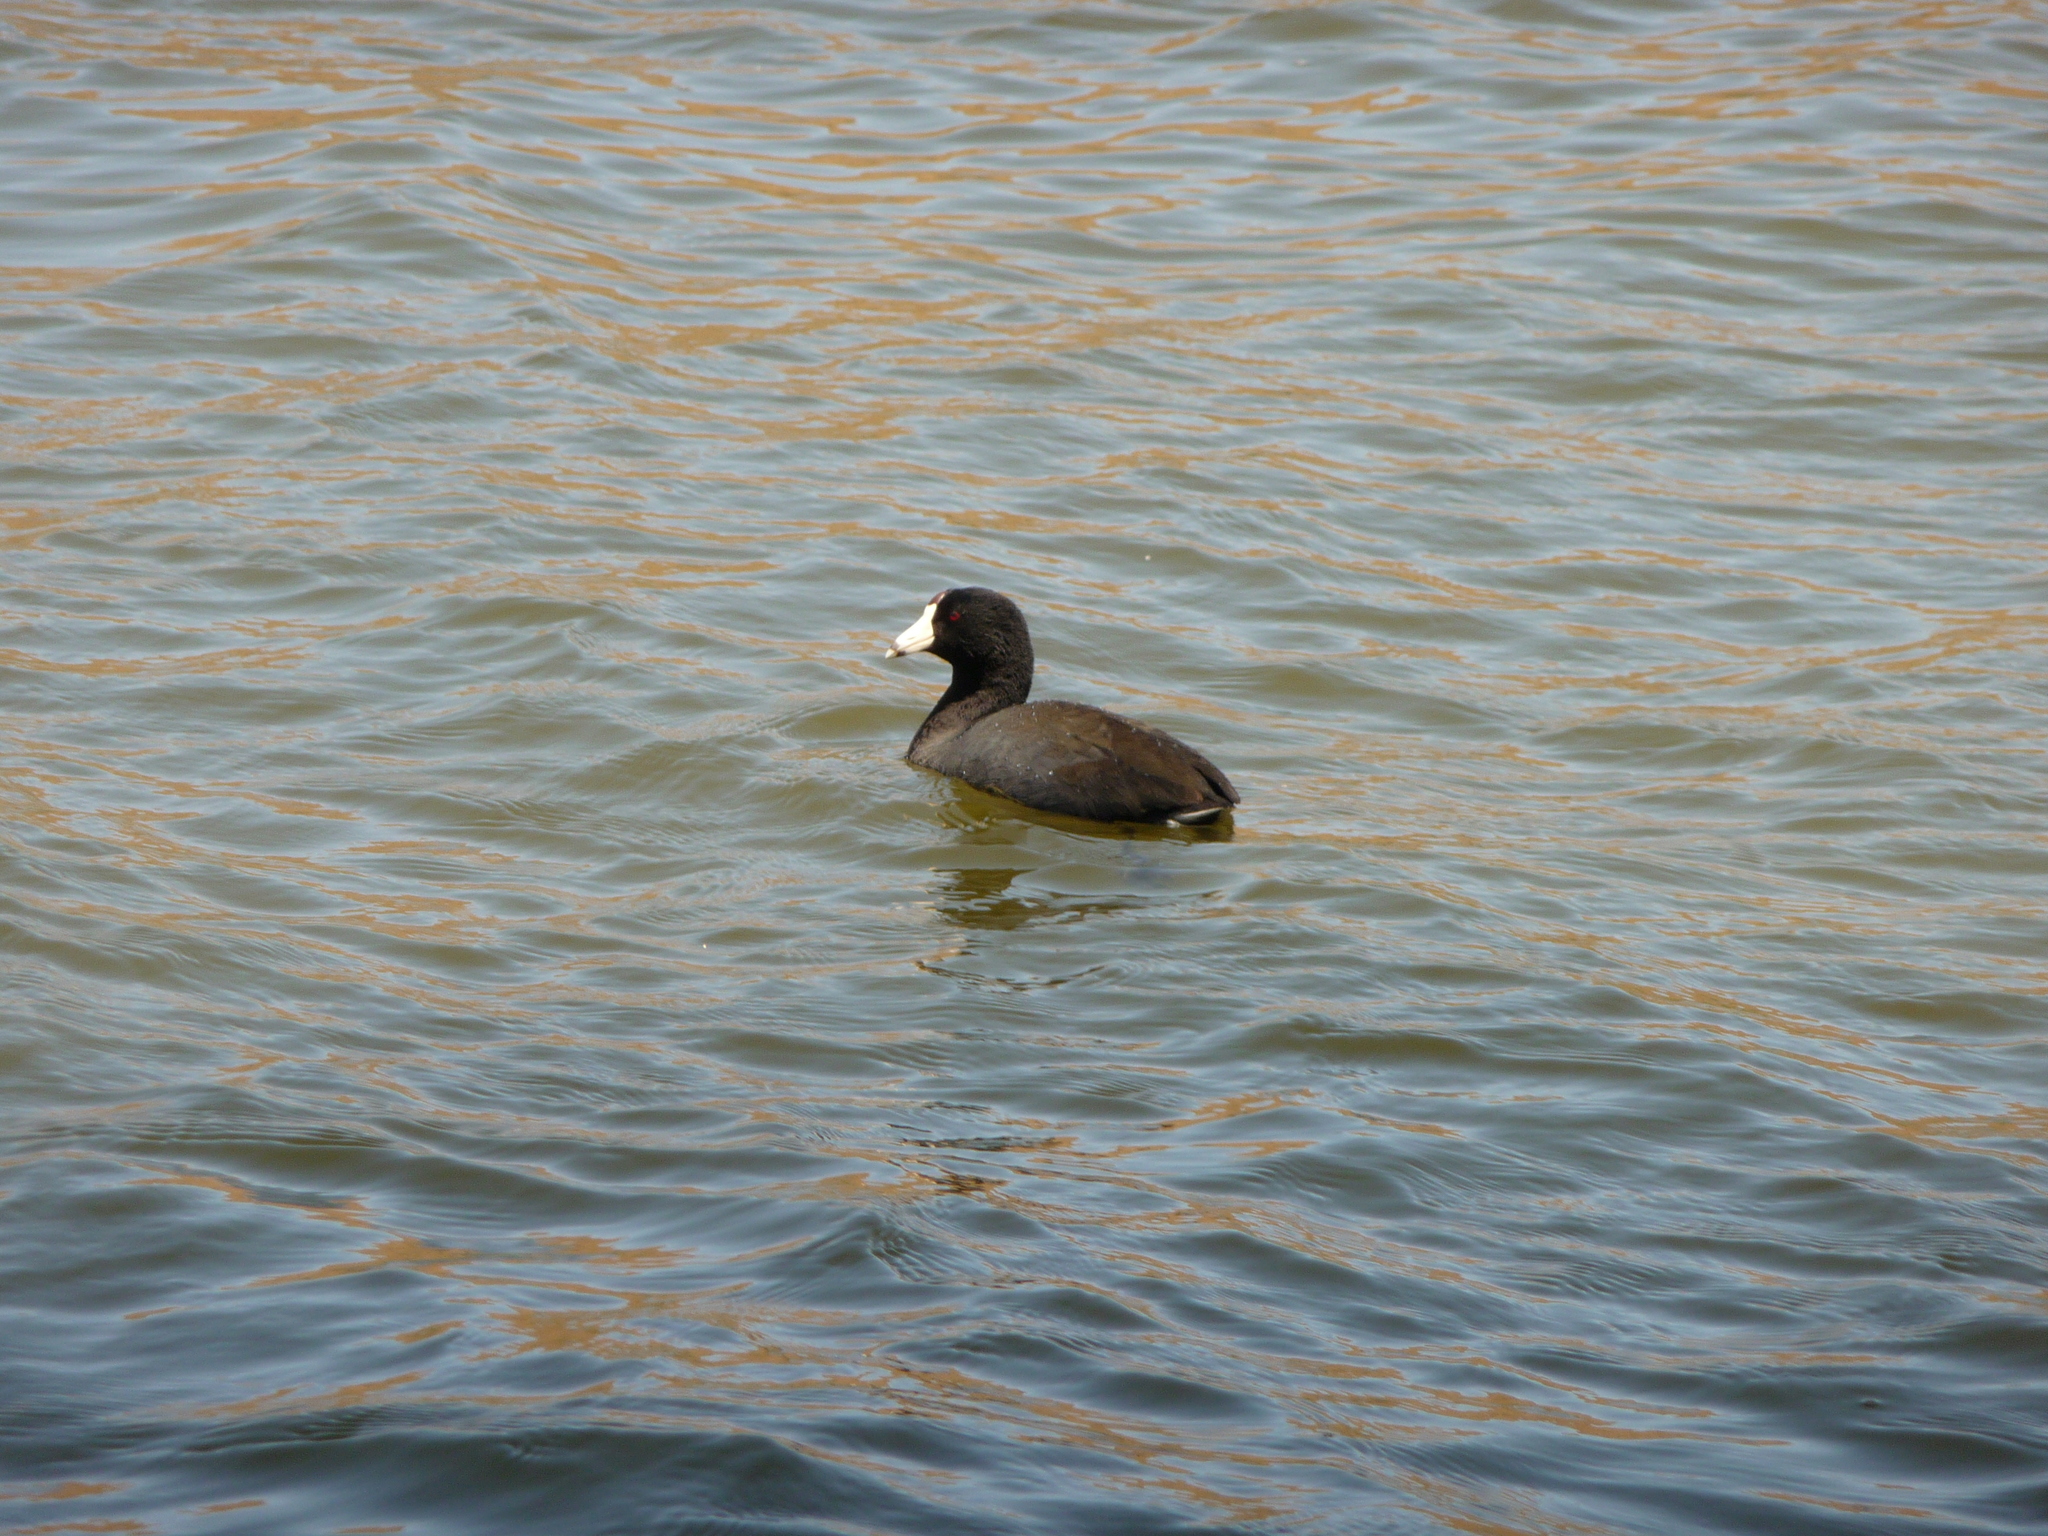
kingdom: Animalia
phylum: Chordata
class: Aves
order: Gruiformes
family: Rallidae
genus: Fulica
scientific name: Fulica americana
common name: American coot
